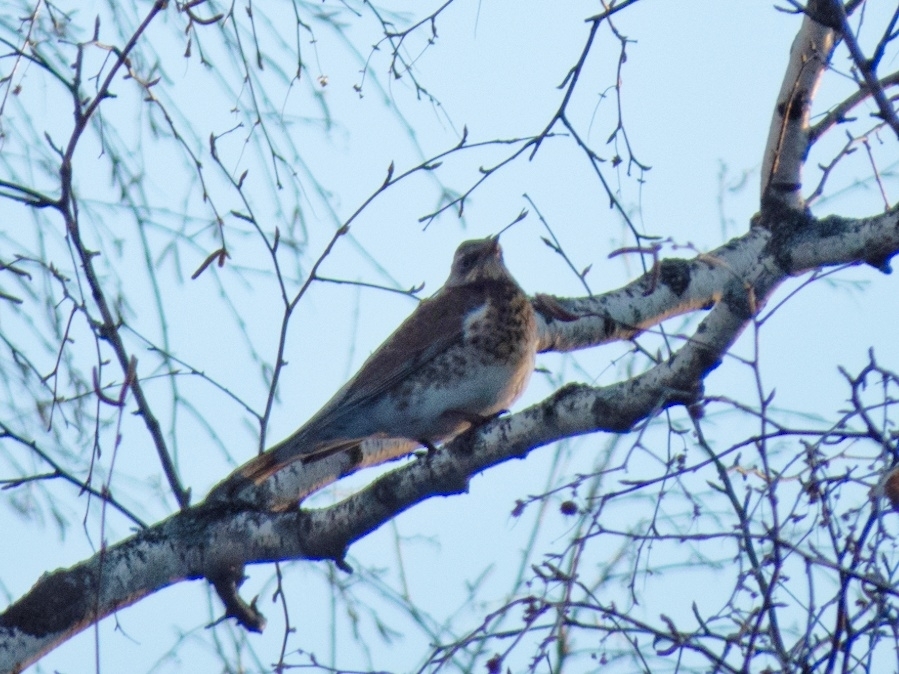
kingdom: Animalia
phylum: Chordata
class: Aves
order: Passeriformes
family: Turdidae
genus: Turdus
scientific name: Turdus pilaris
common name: Fieldfare
